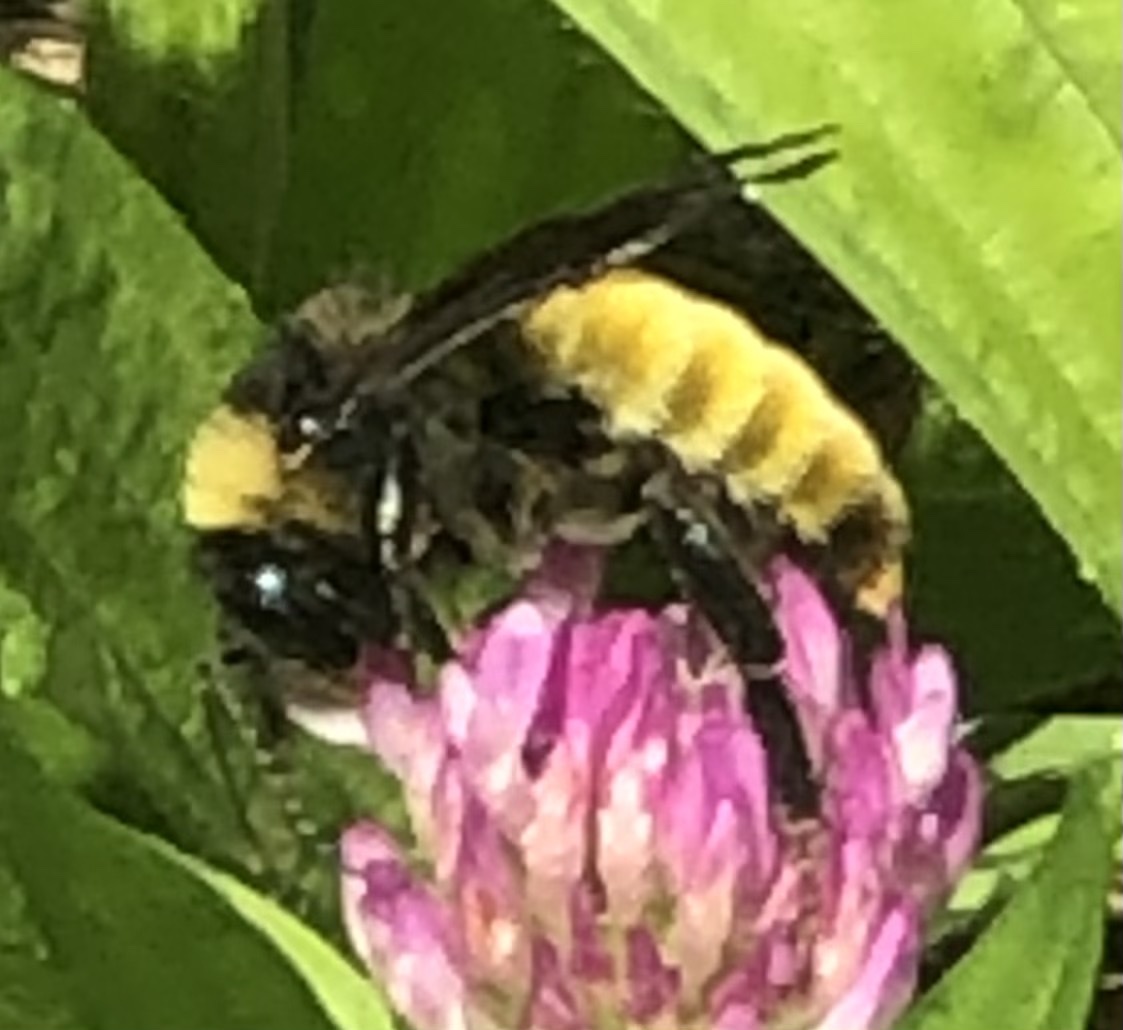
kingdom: Animalia
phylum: Arthropoda
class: Insecta
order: Hymenoptera
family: Apidae
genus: Bombus
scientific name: Bombus pensylvanicus
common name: Bumble bee
